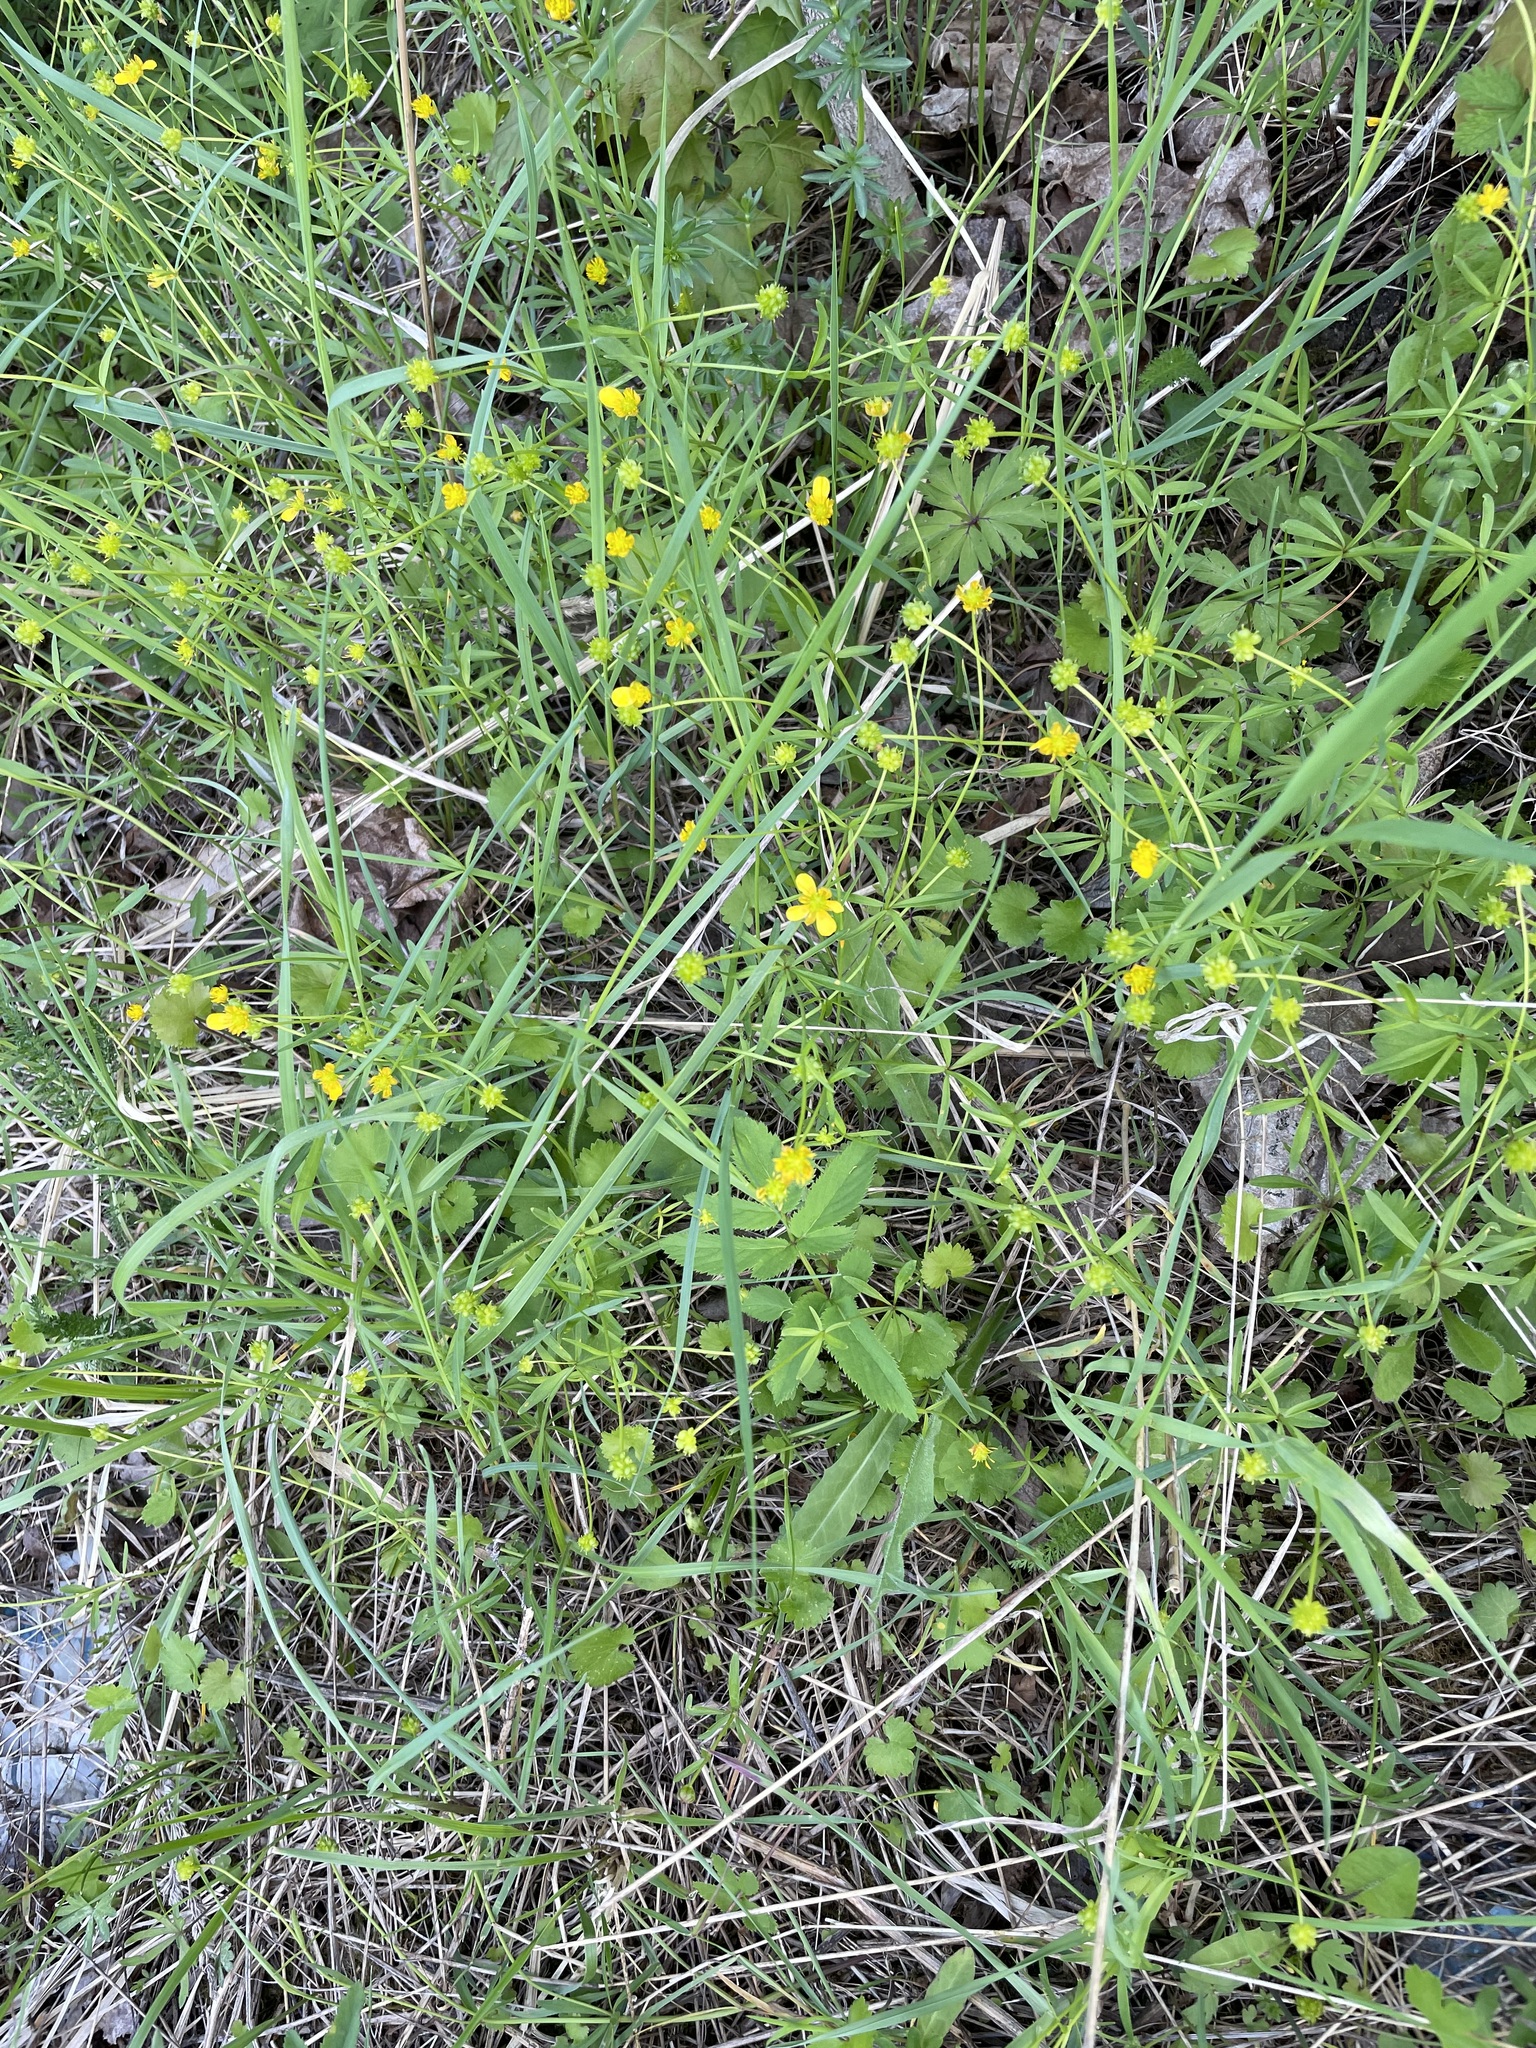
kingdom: Plantae
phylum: Tracheophyta
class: Magnoliopsida
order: Ranunculales
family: Ranunculaceae
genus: Ranunculus
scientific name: Ranunculus auricomus
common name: Goldilocks buttercup
